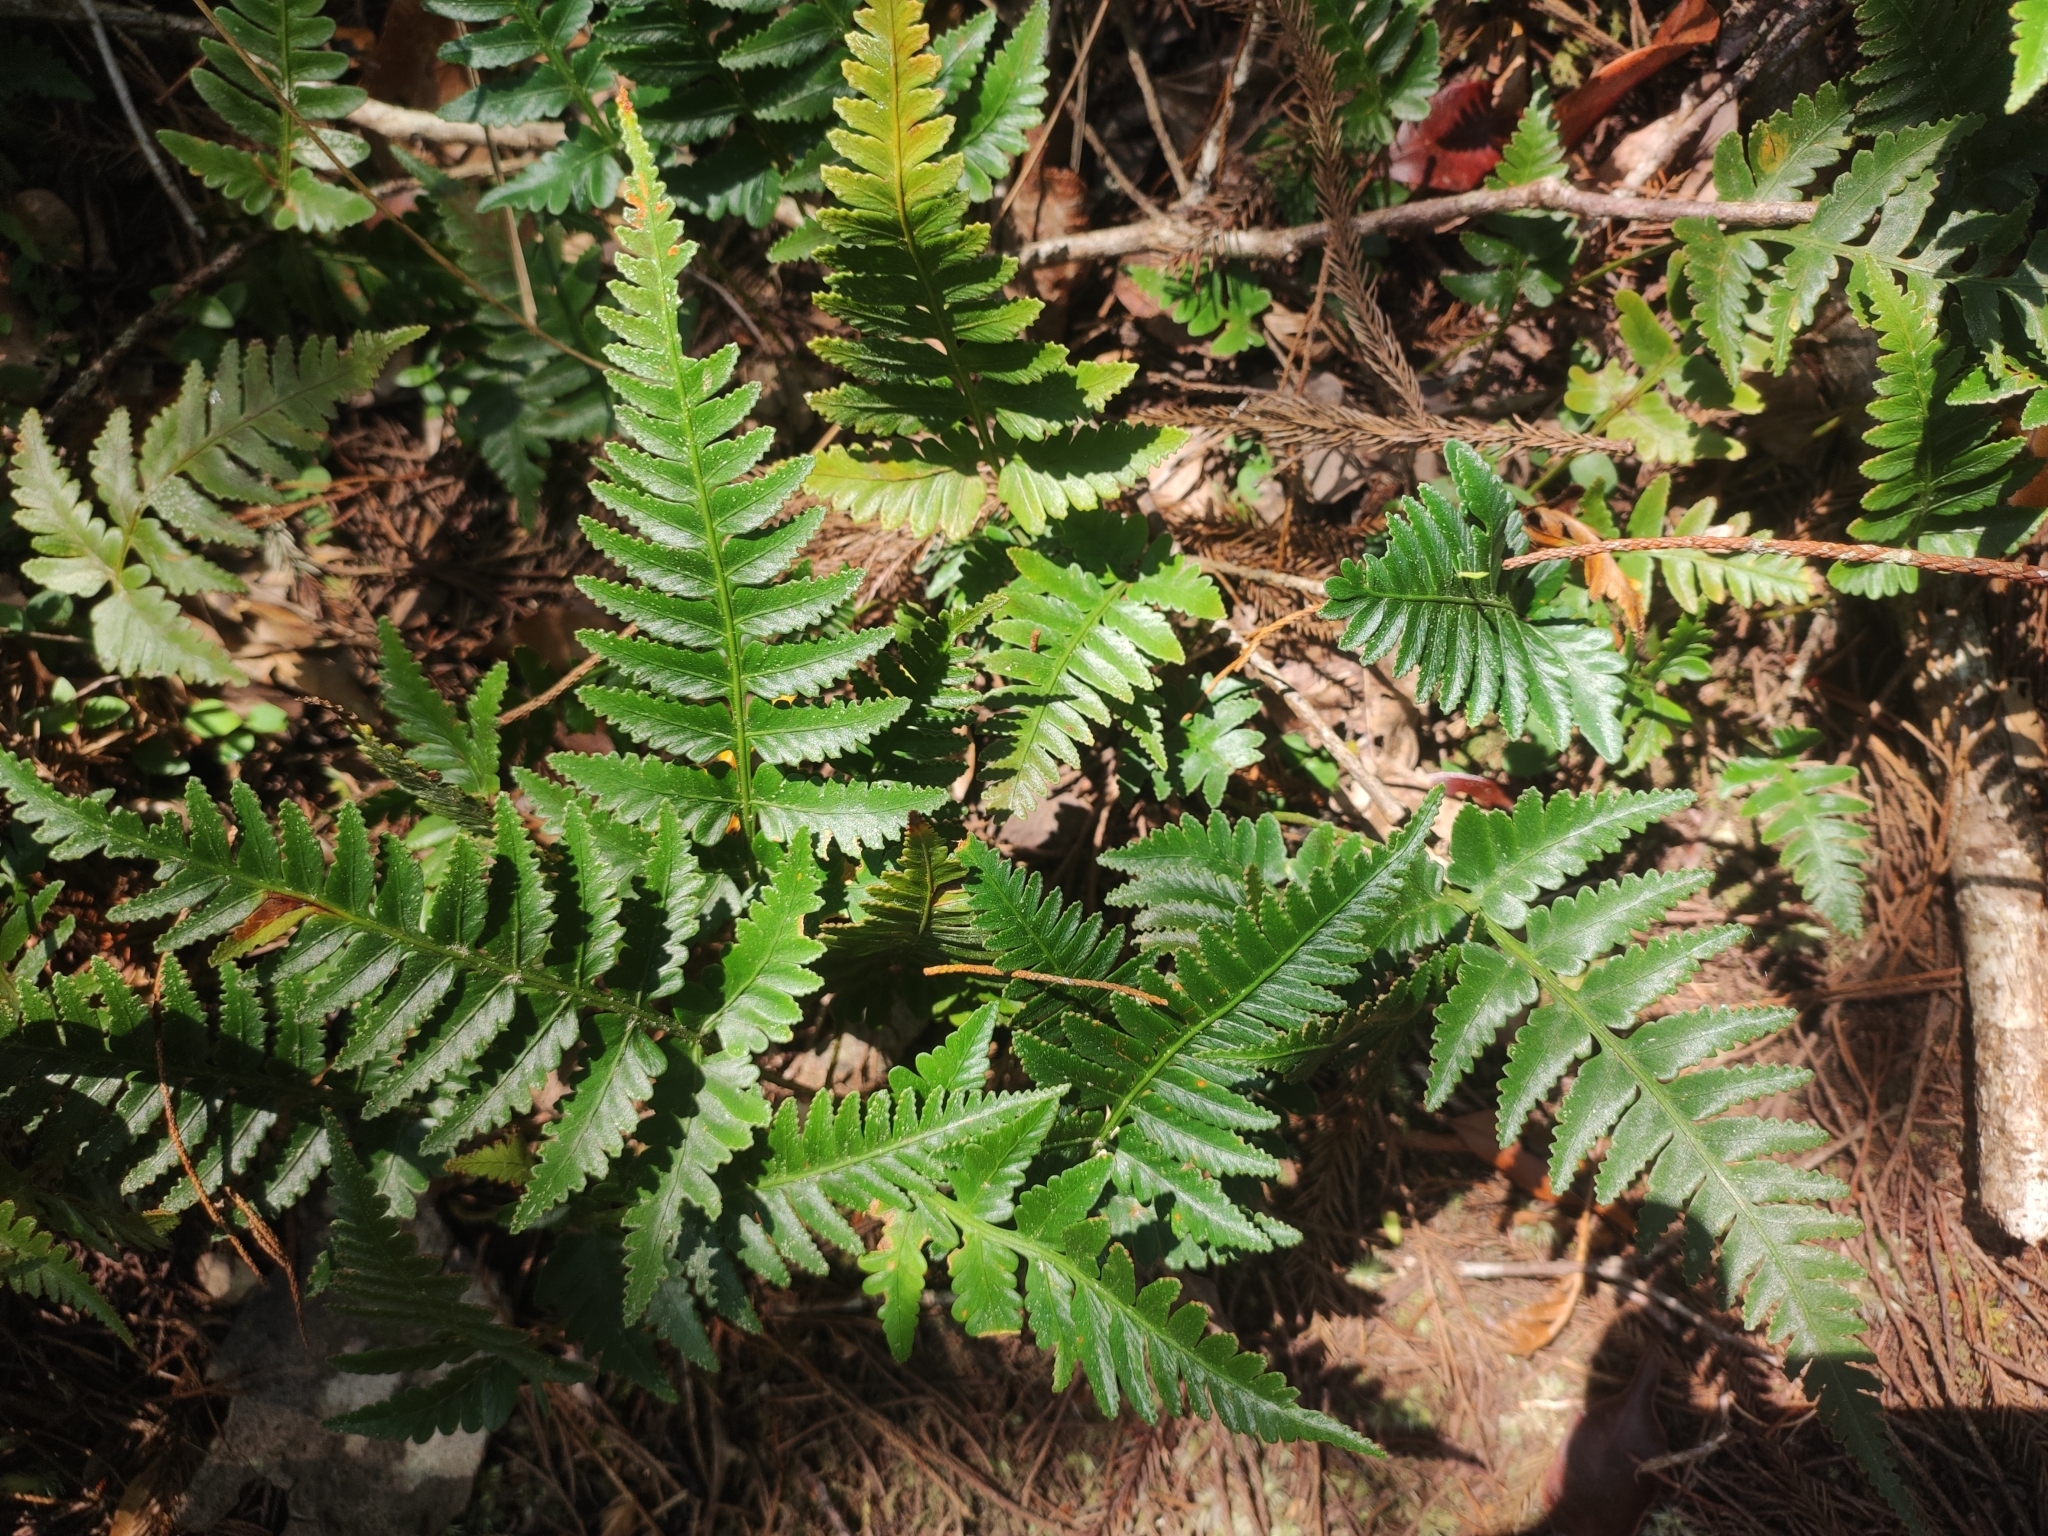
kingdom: Plantae
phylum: Tracheophyta
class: Polypodiopsida
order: Polypodiales
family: Davalliaceae
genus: Davallia
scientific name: Davallia repens
